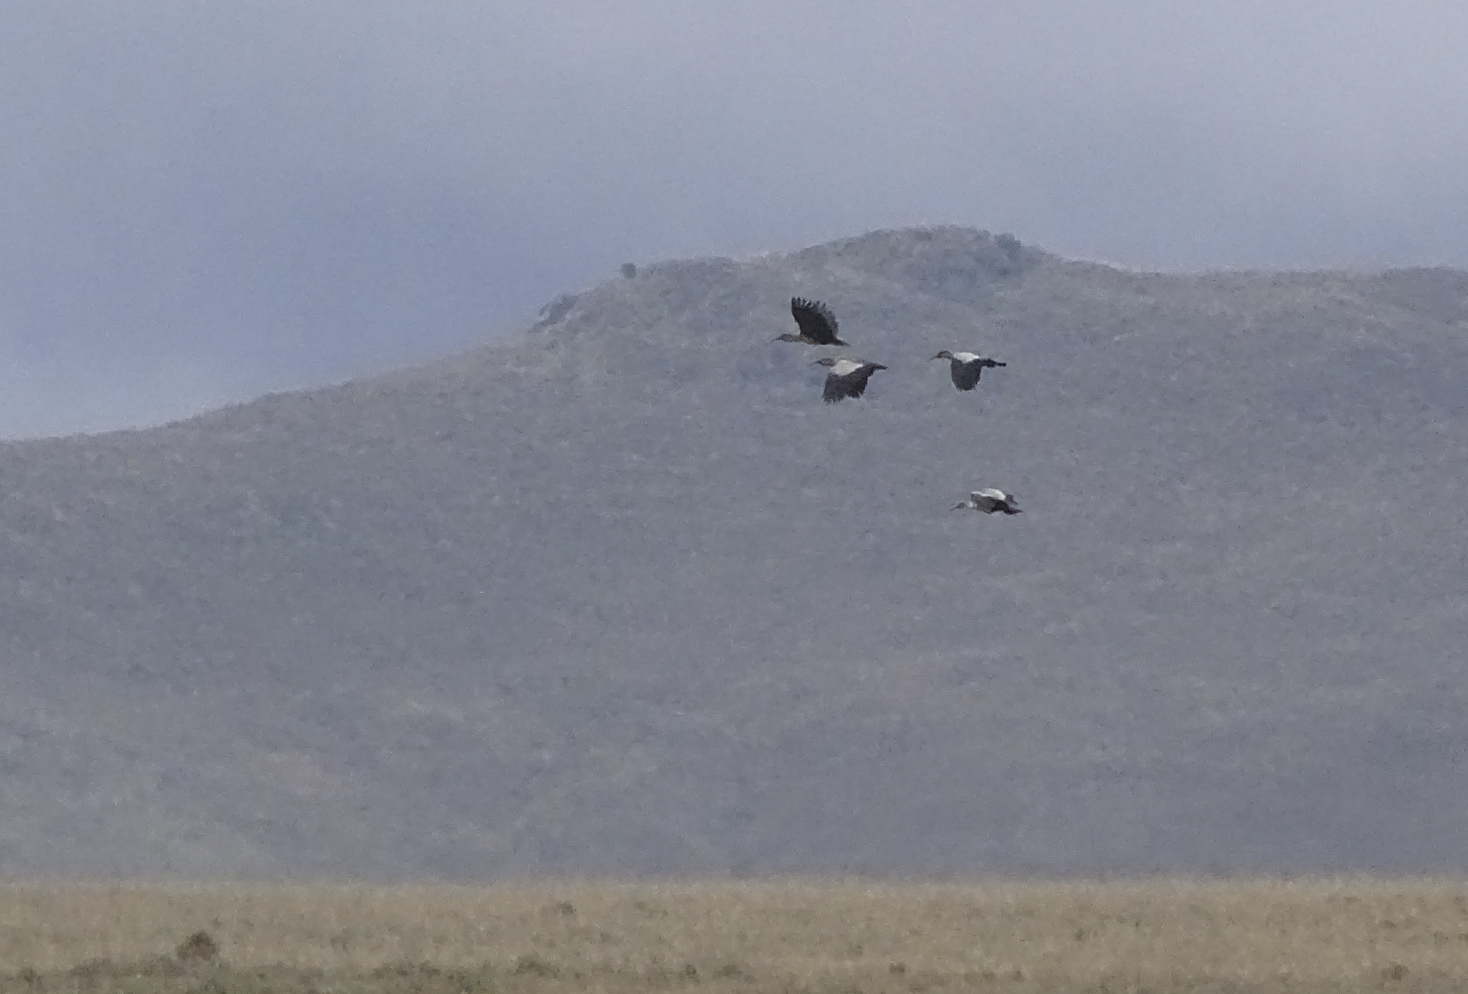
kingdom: Animalia
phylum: Chordata
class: Aves
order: Pelecaniformes
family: Threskiornithidae
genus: Theristicus
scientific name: Theristicus melanopis
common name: Black-faced ibis
